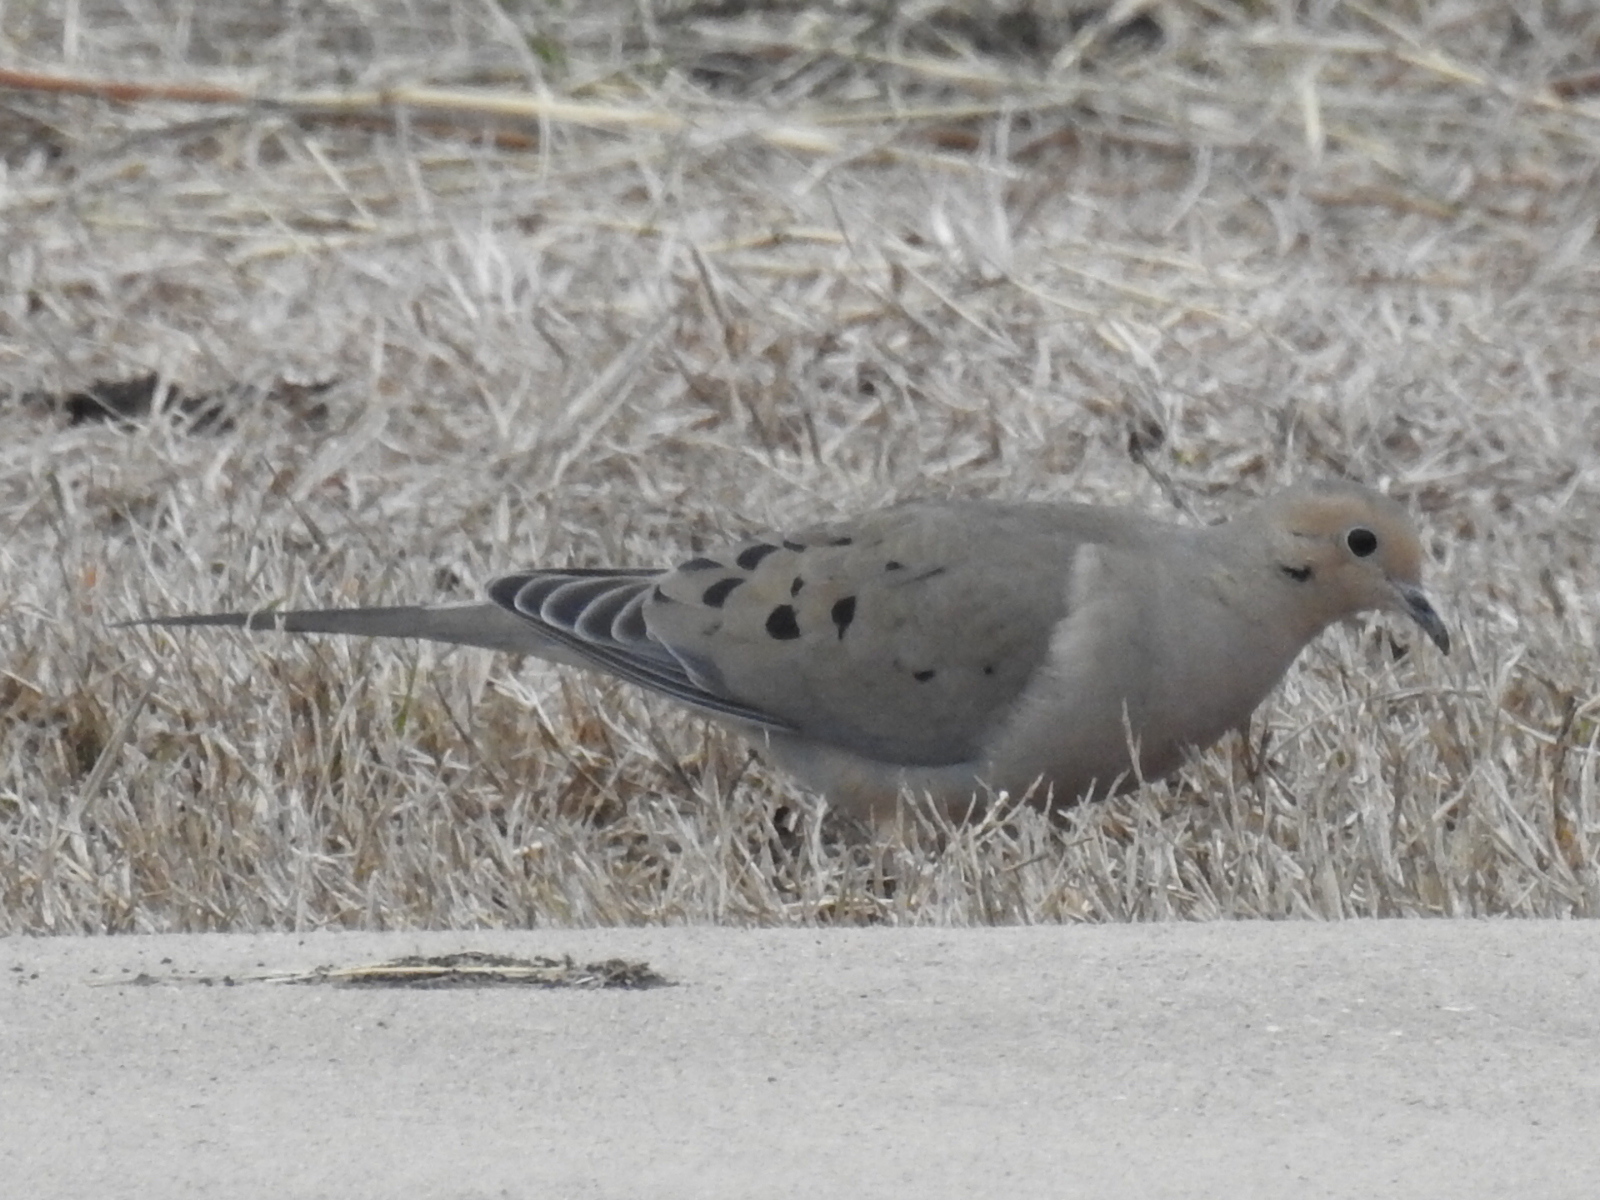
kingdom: Animalia
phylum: Chordata
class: Aves
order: Columbiformes
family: Columbidae
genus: Zenaida
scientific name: Zenaida macroura
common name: Mourning dove
